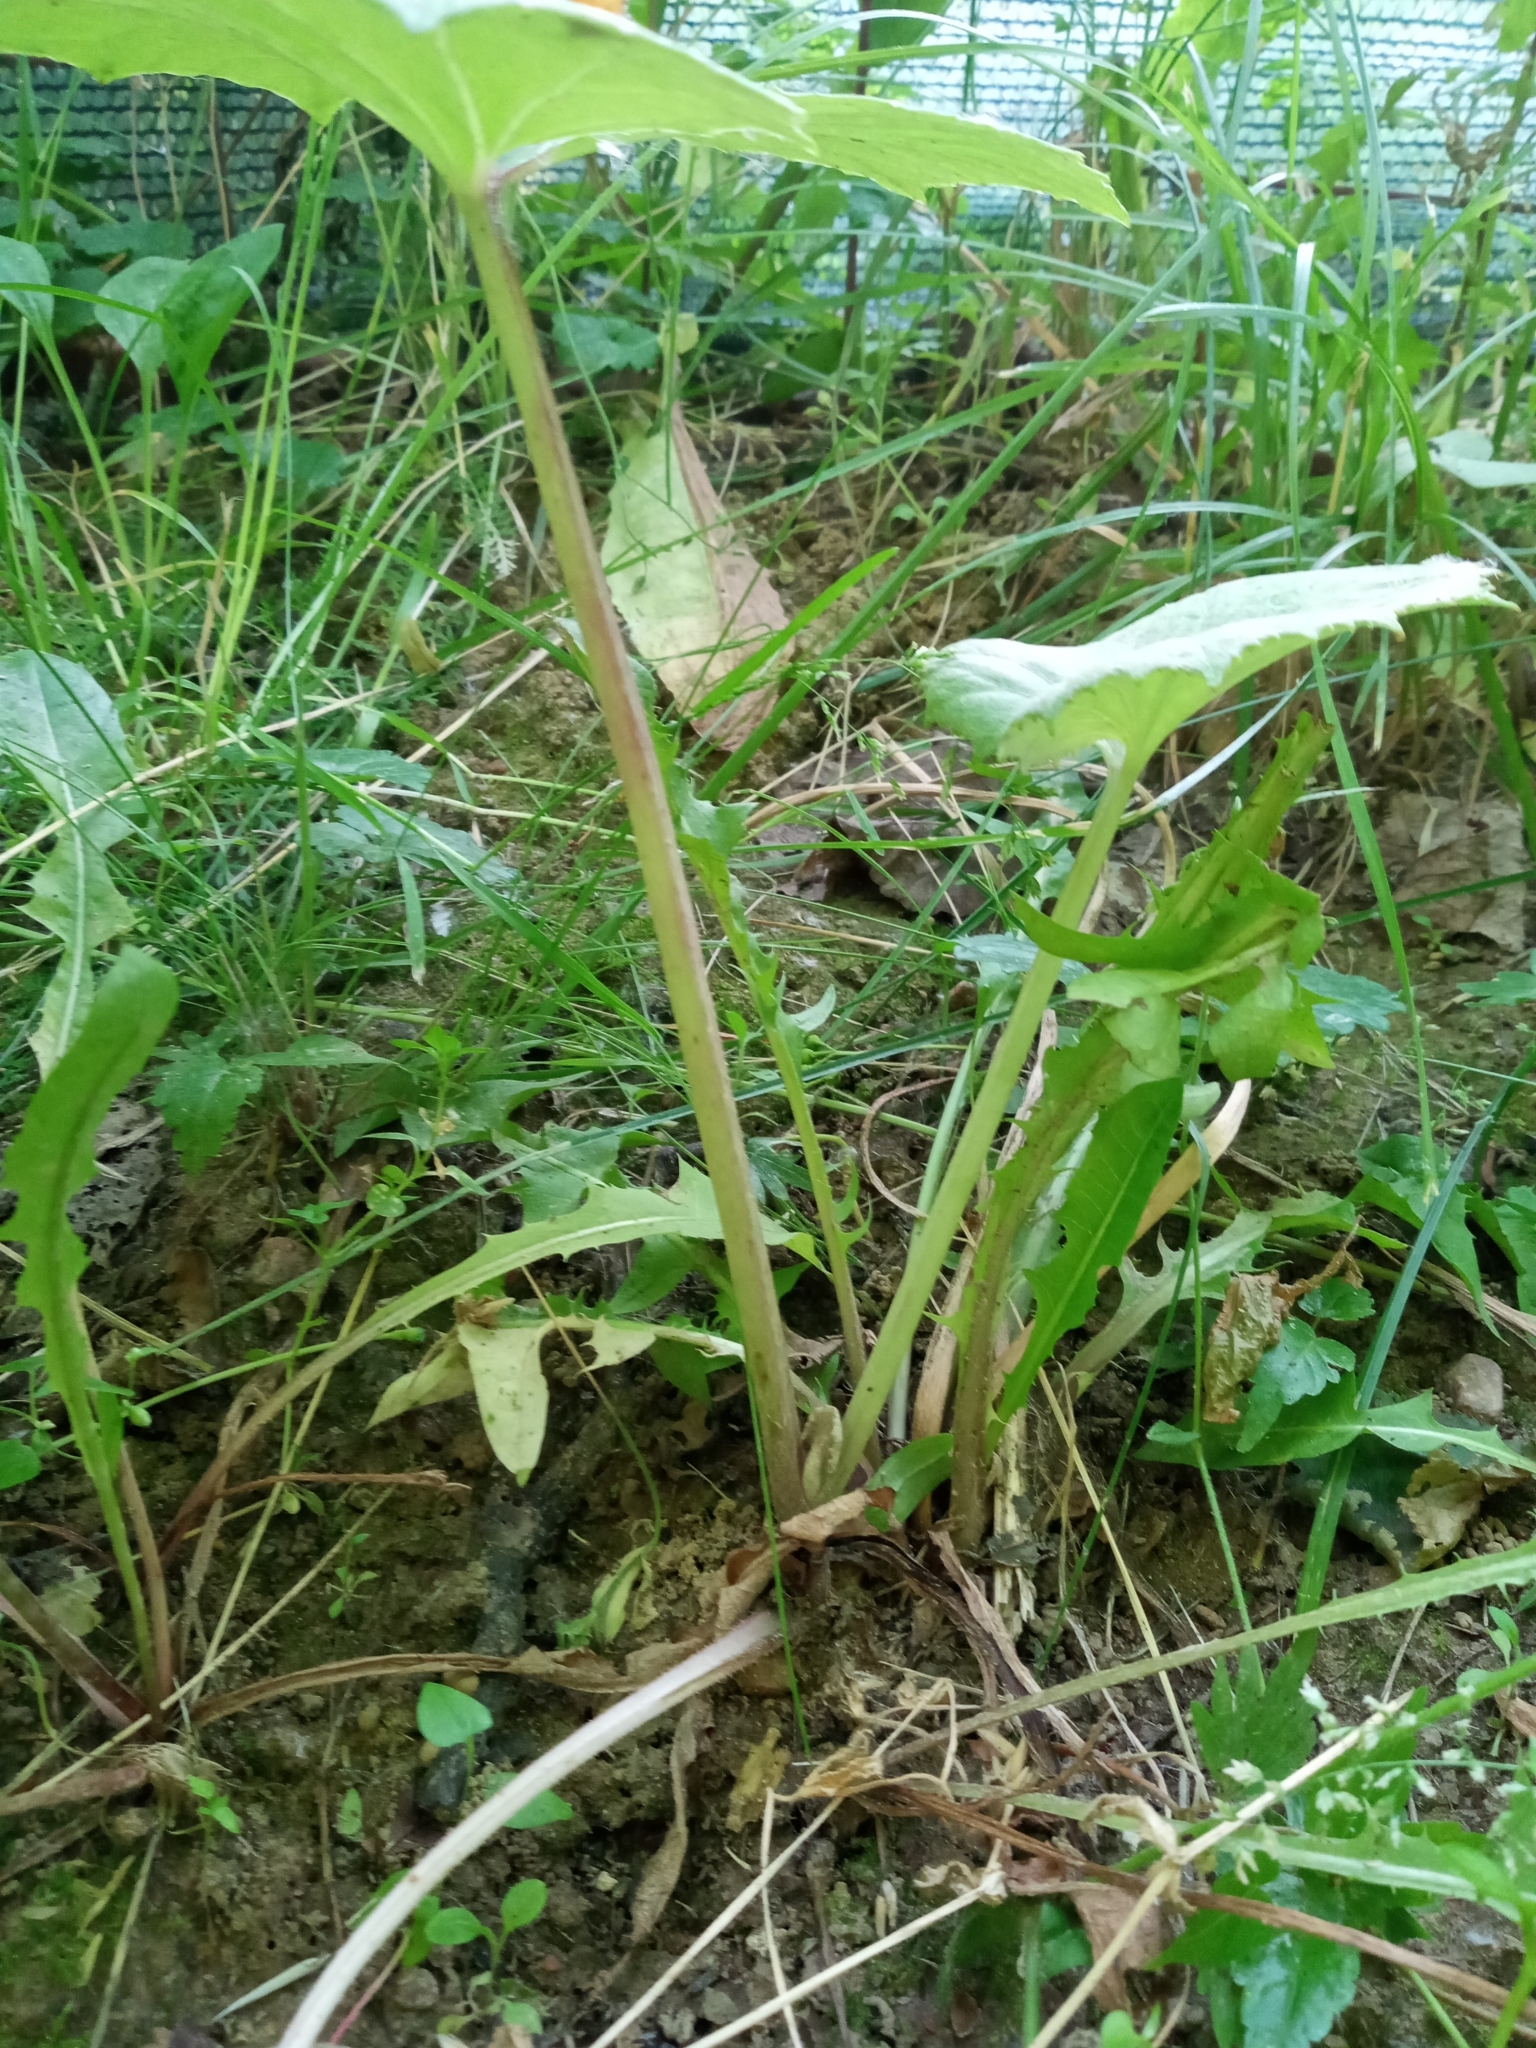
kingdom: Plantae
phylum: Tracheophyta
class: Magnoliopsida
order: Asterales
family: Asteraceae
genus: Tussilago
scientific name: Tussilago farfara
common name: Coltsfoot
